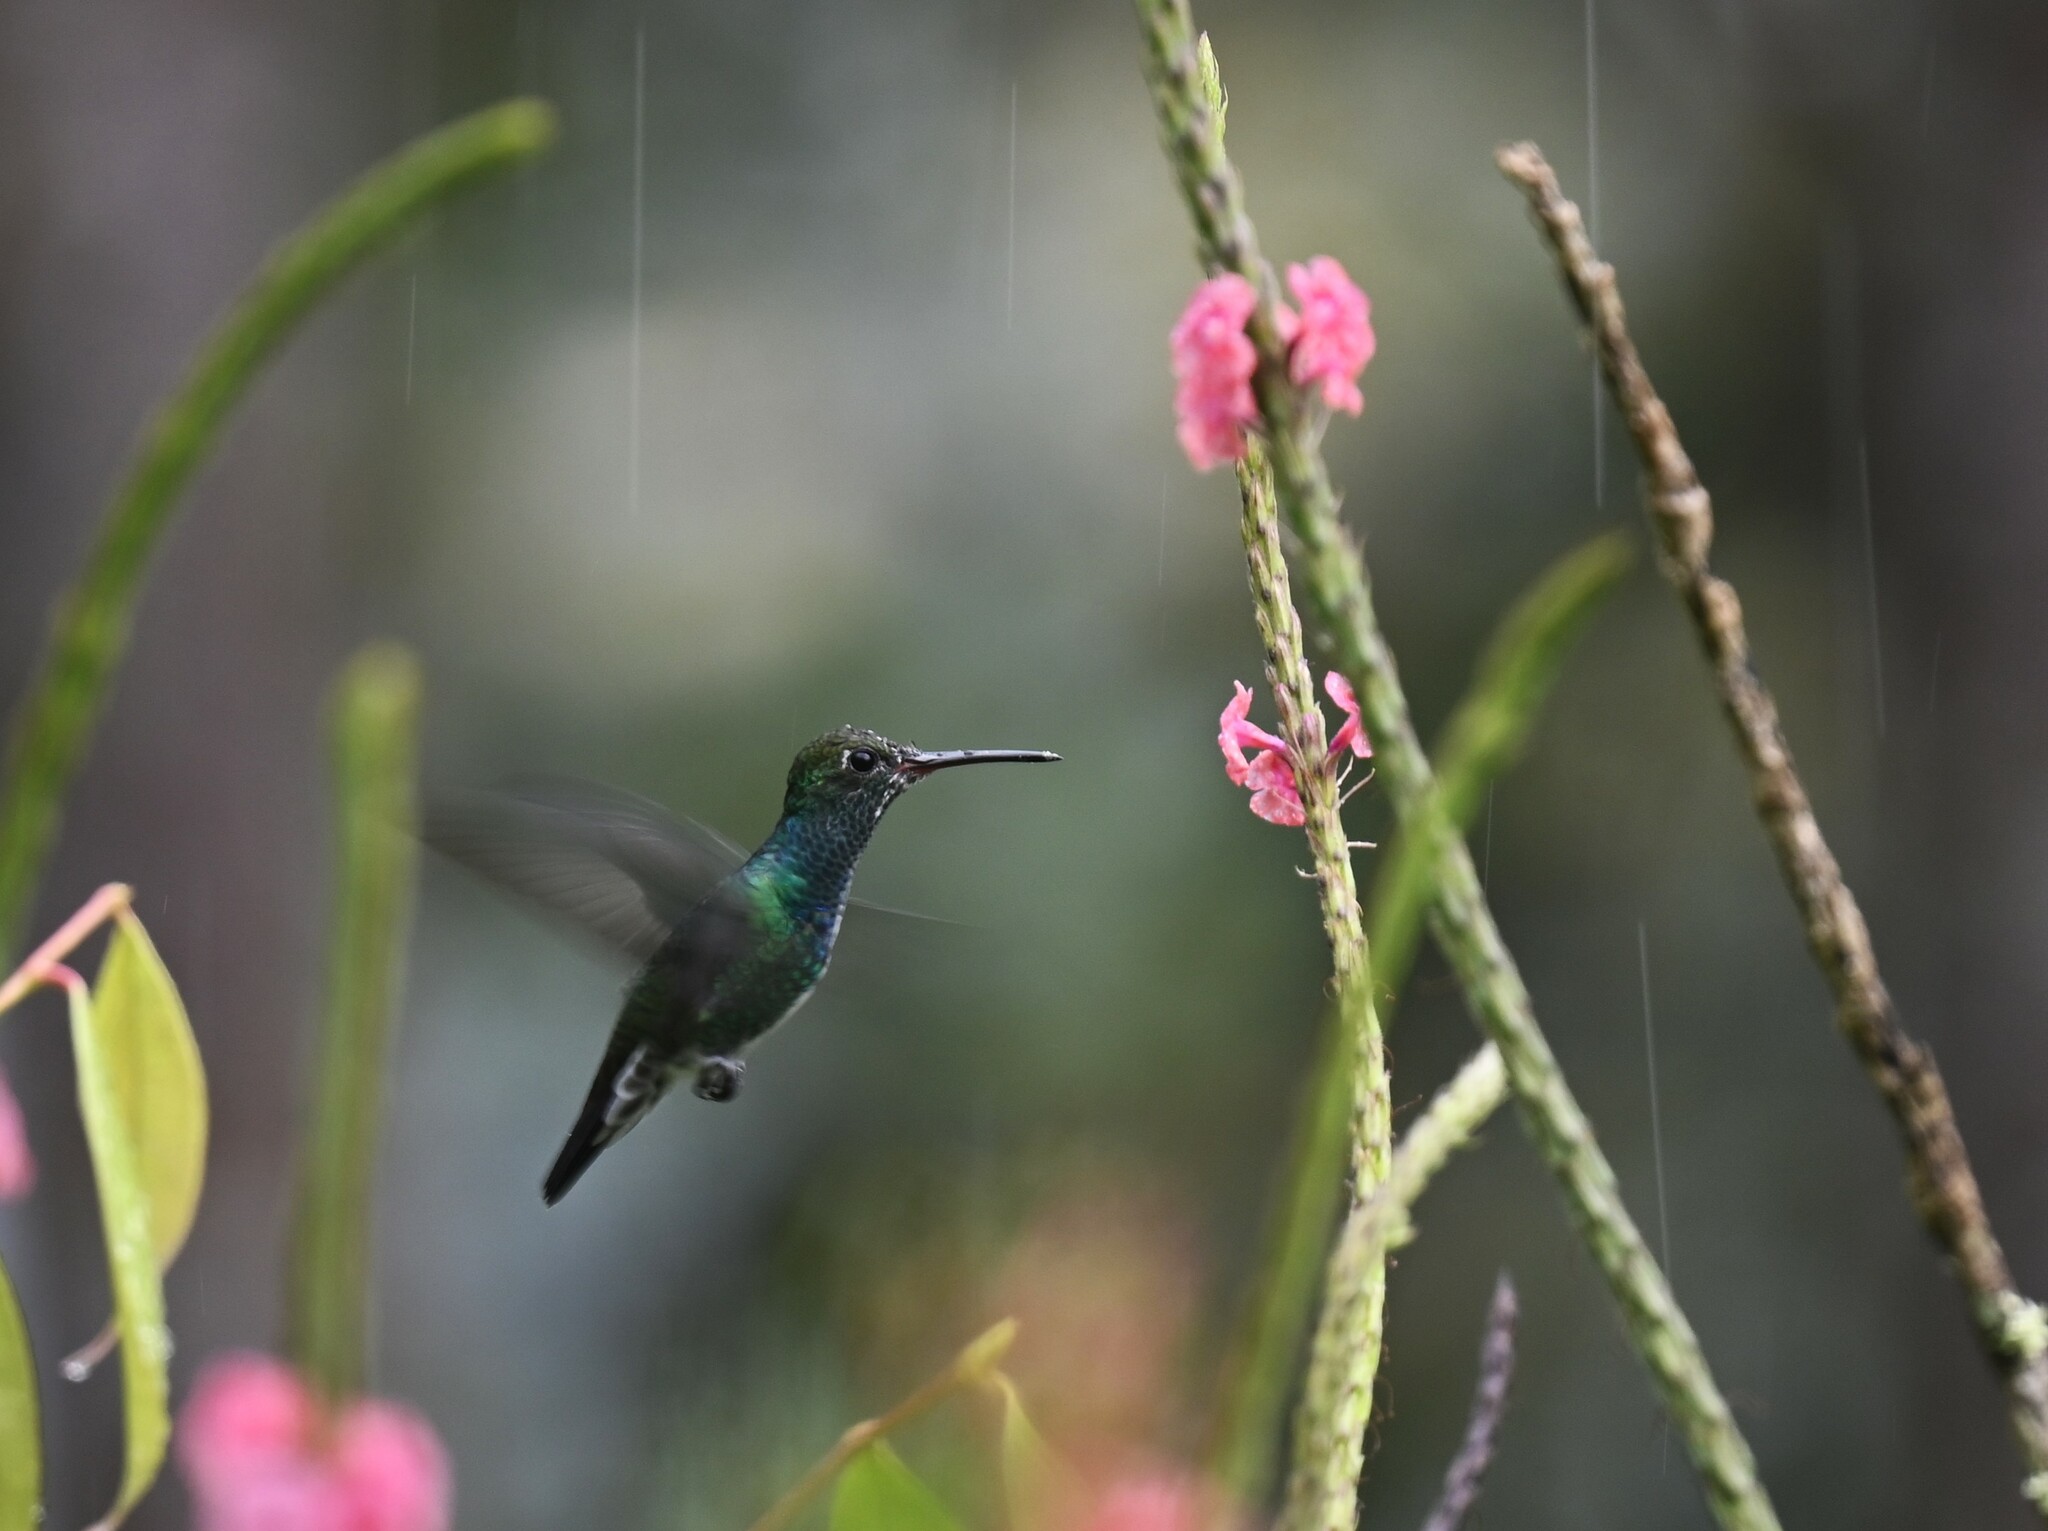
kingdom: Animalia
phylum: Chordata
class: Aves
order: Apodiformes
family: Trochilidae
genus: Chionomesa
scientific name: Chionomesa fimbriata
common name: Glittering-throated emerald
